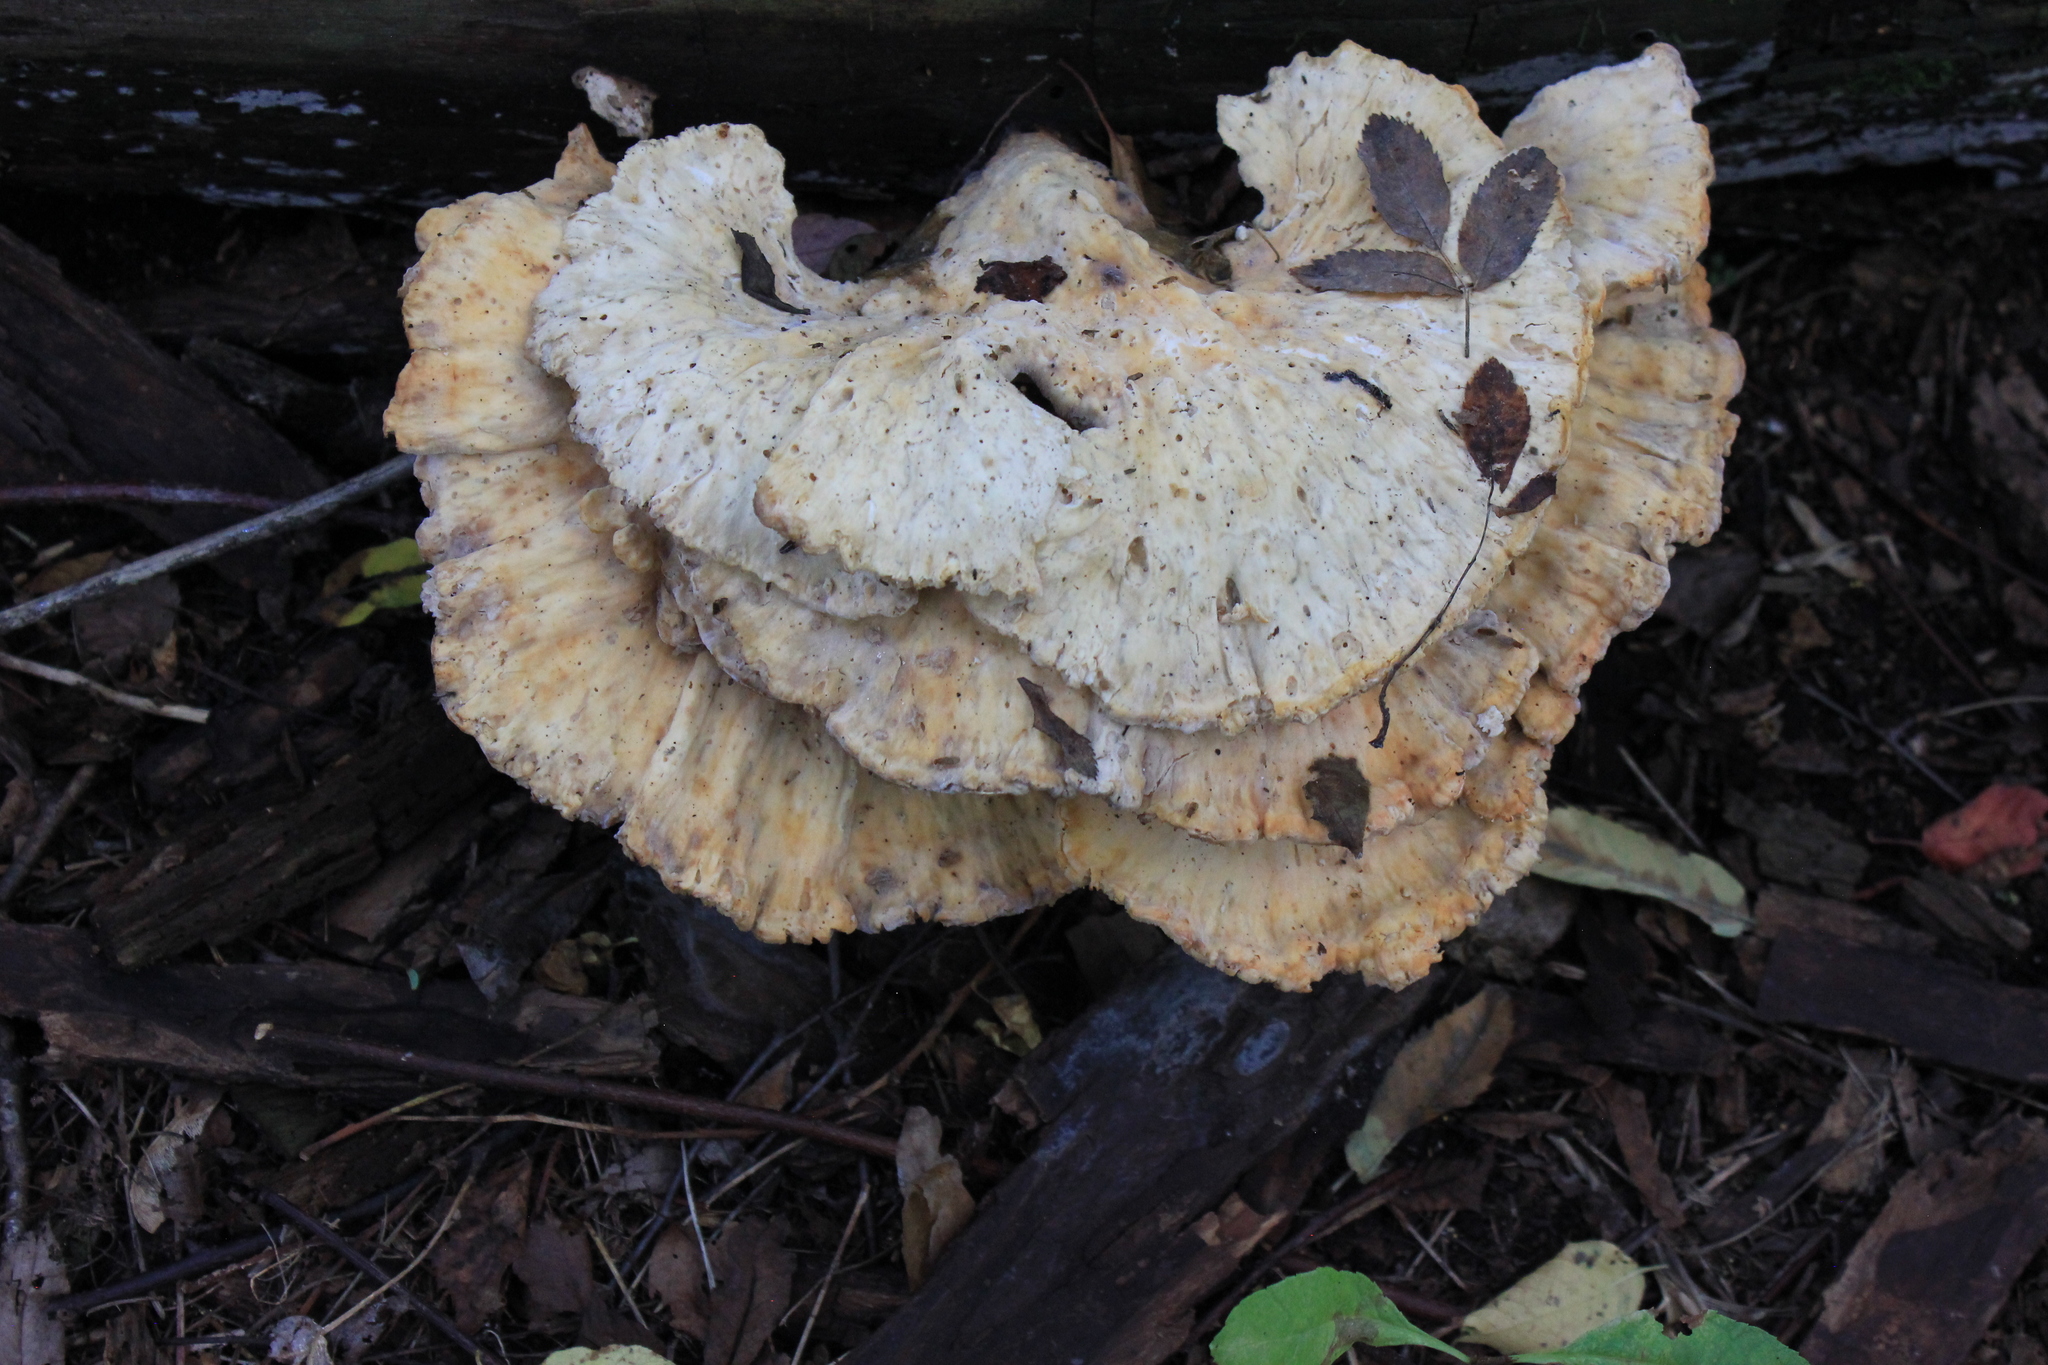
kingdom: Fungi
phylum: Basidiomycota
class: Agaricomycetes
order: Polyporales
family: Laetiporaceae
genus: Laetiporus
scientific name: Laetiporus sulphureus
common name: Chicken of the woods
